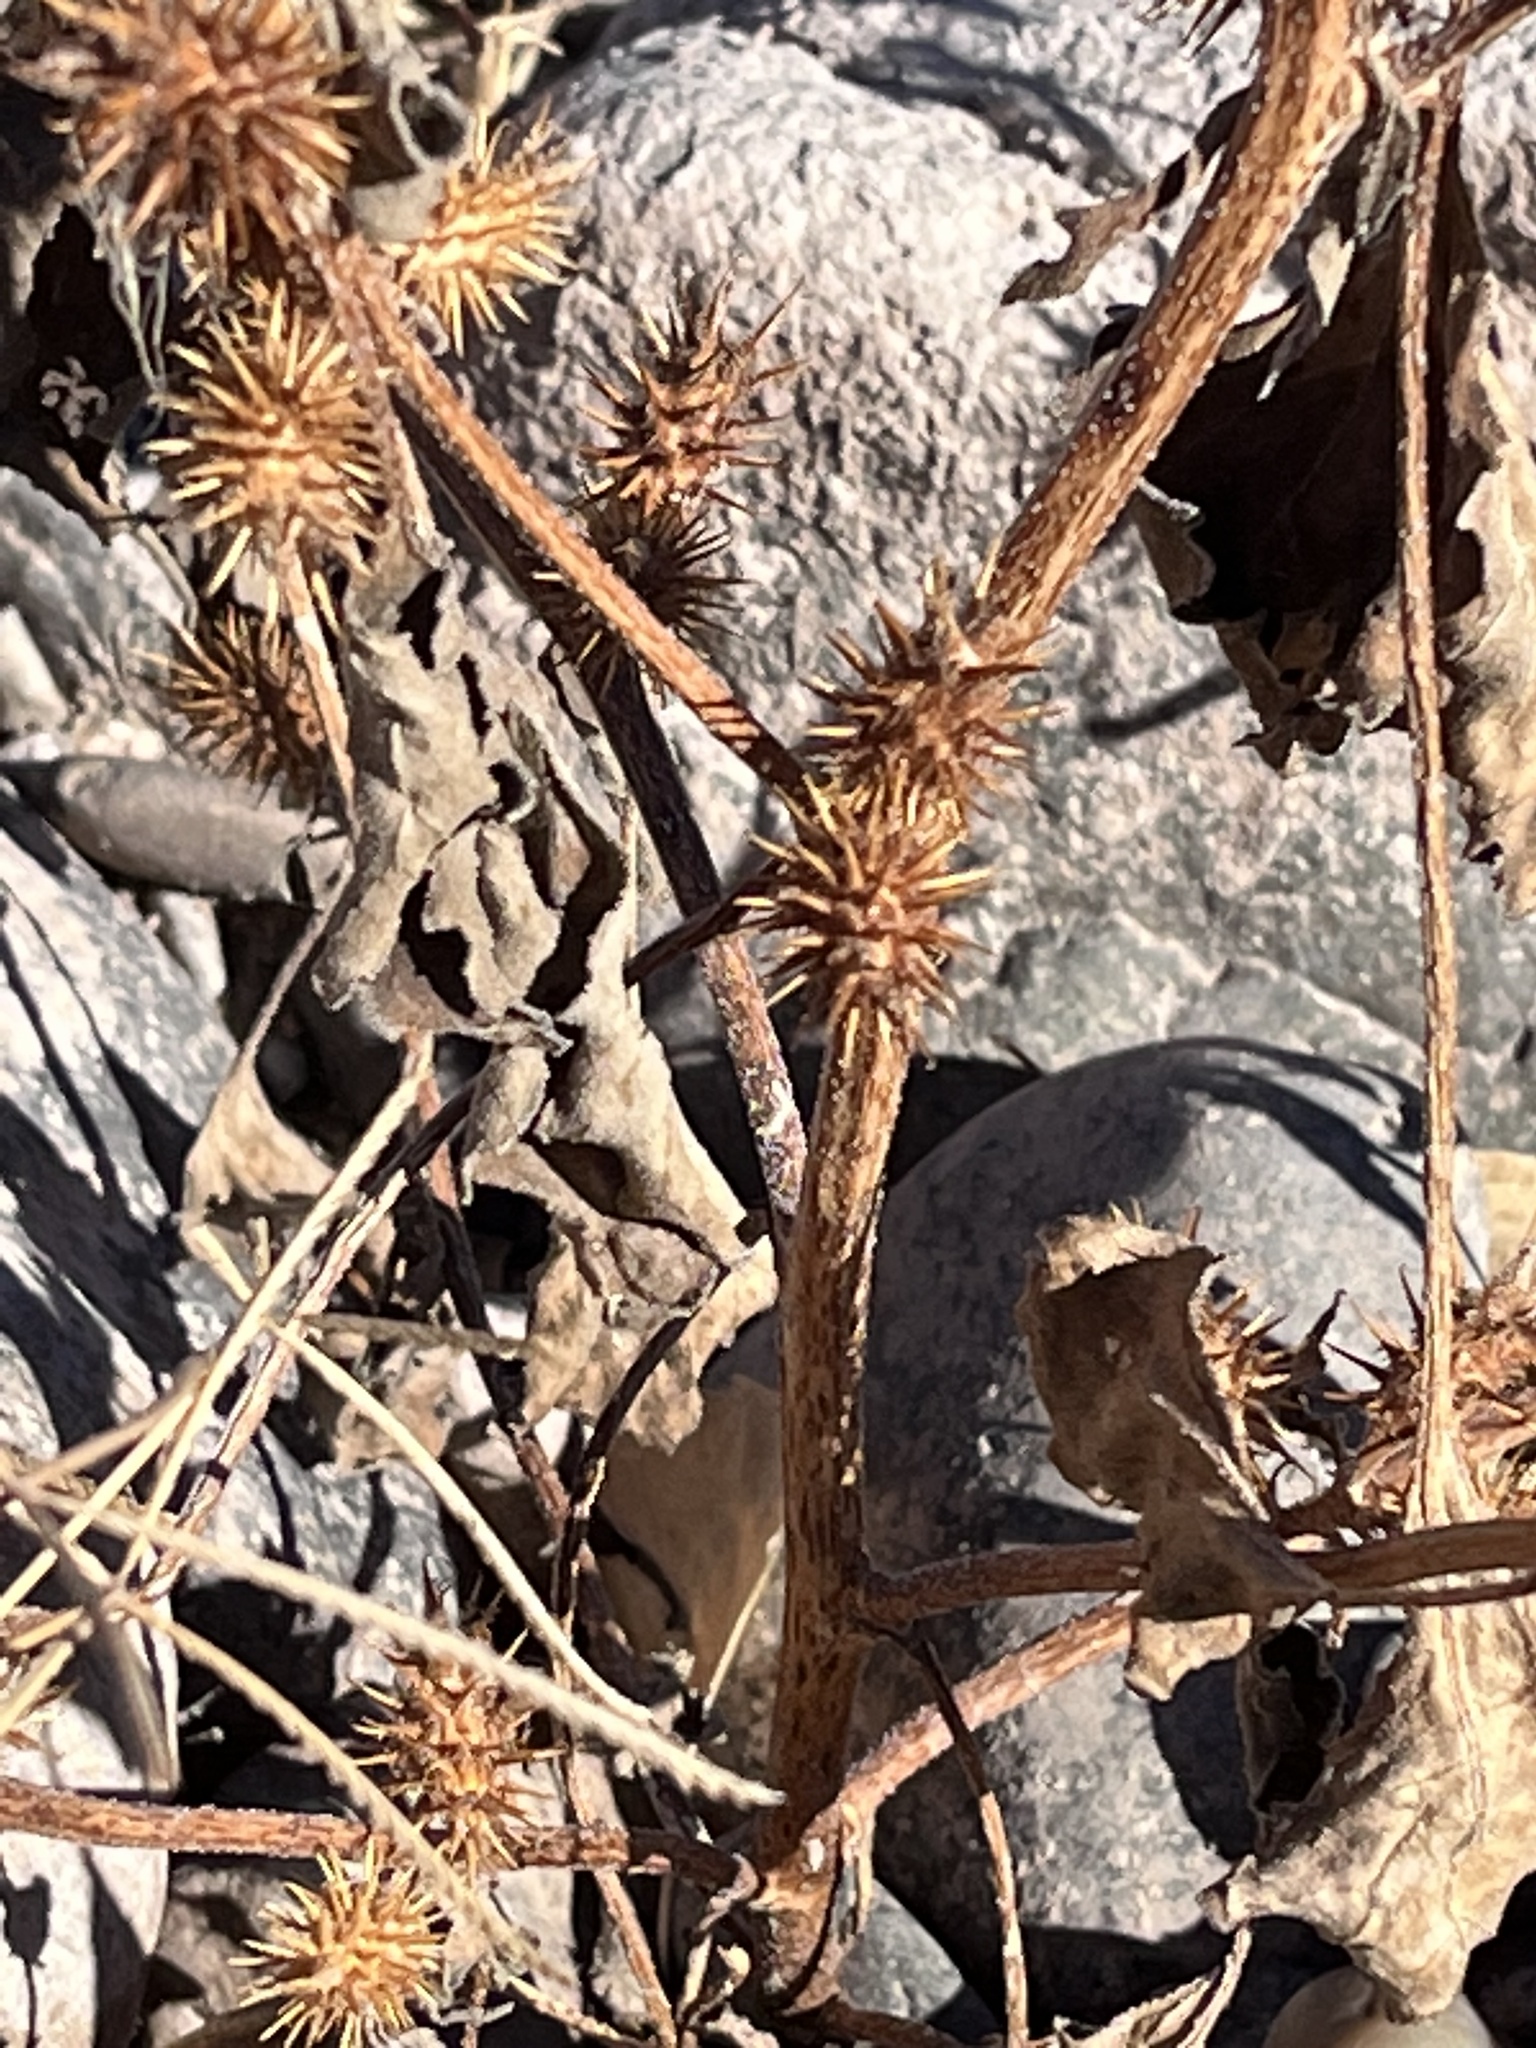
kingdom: Plantae
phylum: Tracheophyta
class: Magnoliopsida
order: Asterales
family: Asteraceae
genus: Xanthium
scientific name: Xanthium strumarium
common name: Rough cocklebur
